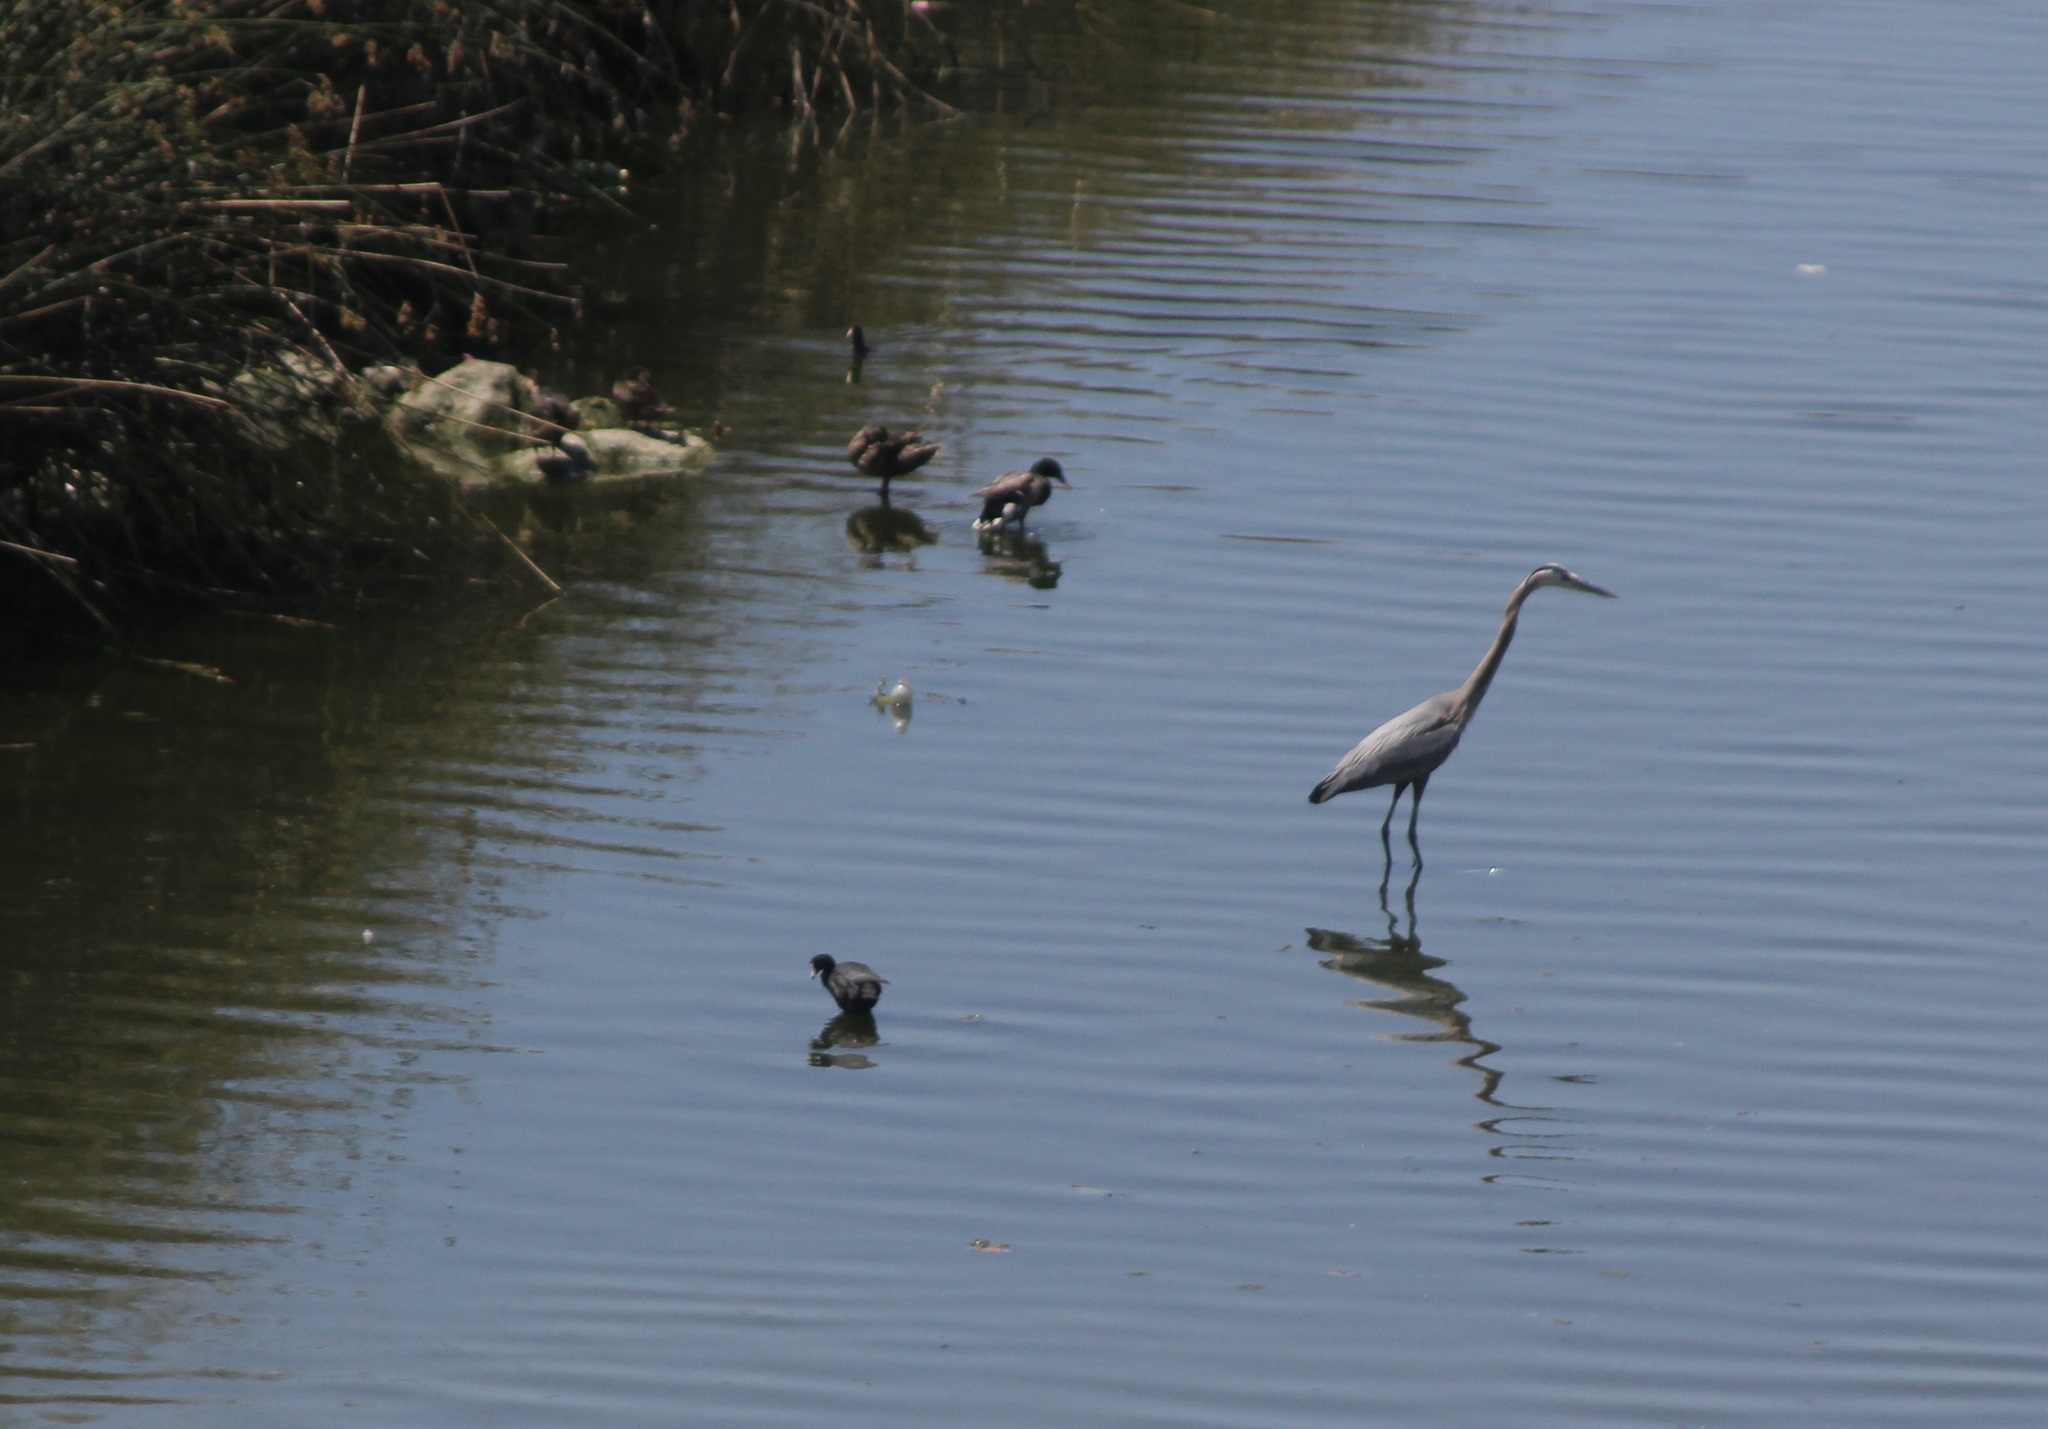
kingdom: Animalia
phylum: Chordata
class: Aves
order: Pelecaniformes
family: Ardeidae
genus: Ardea
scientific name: Ardea herodias
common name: Great blue heron
